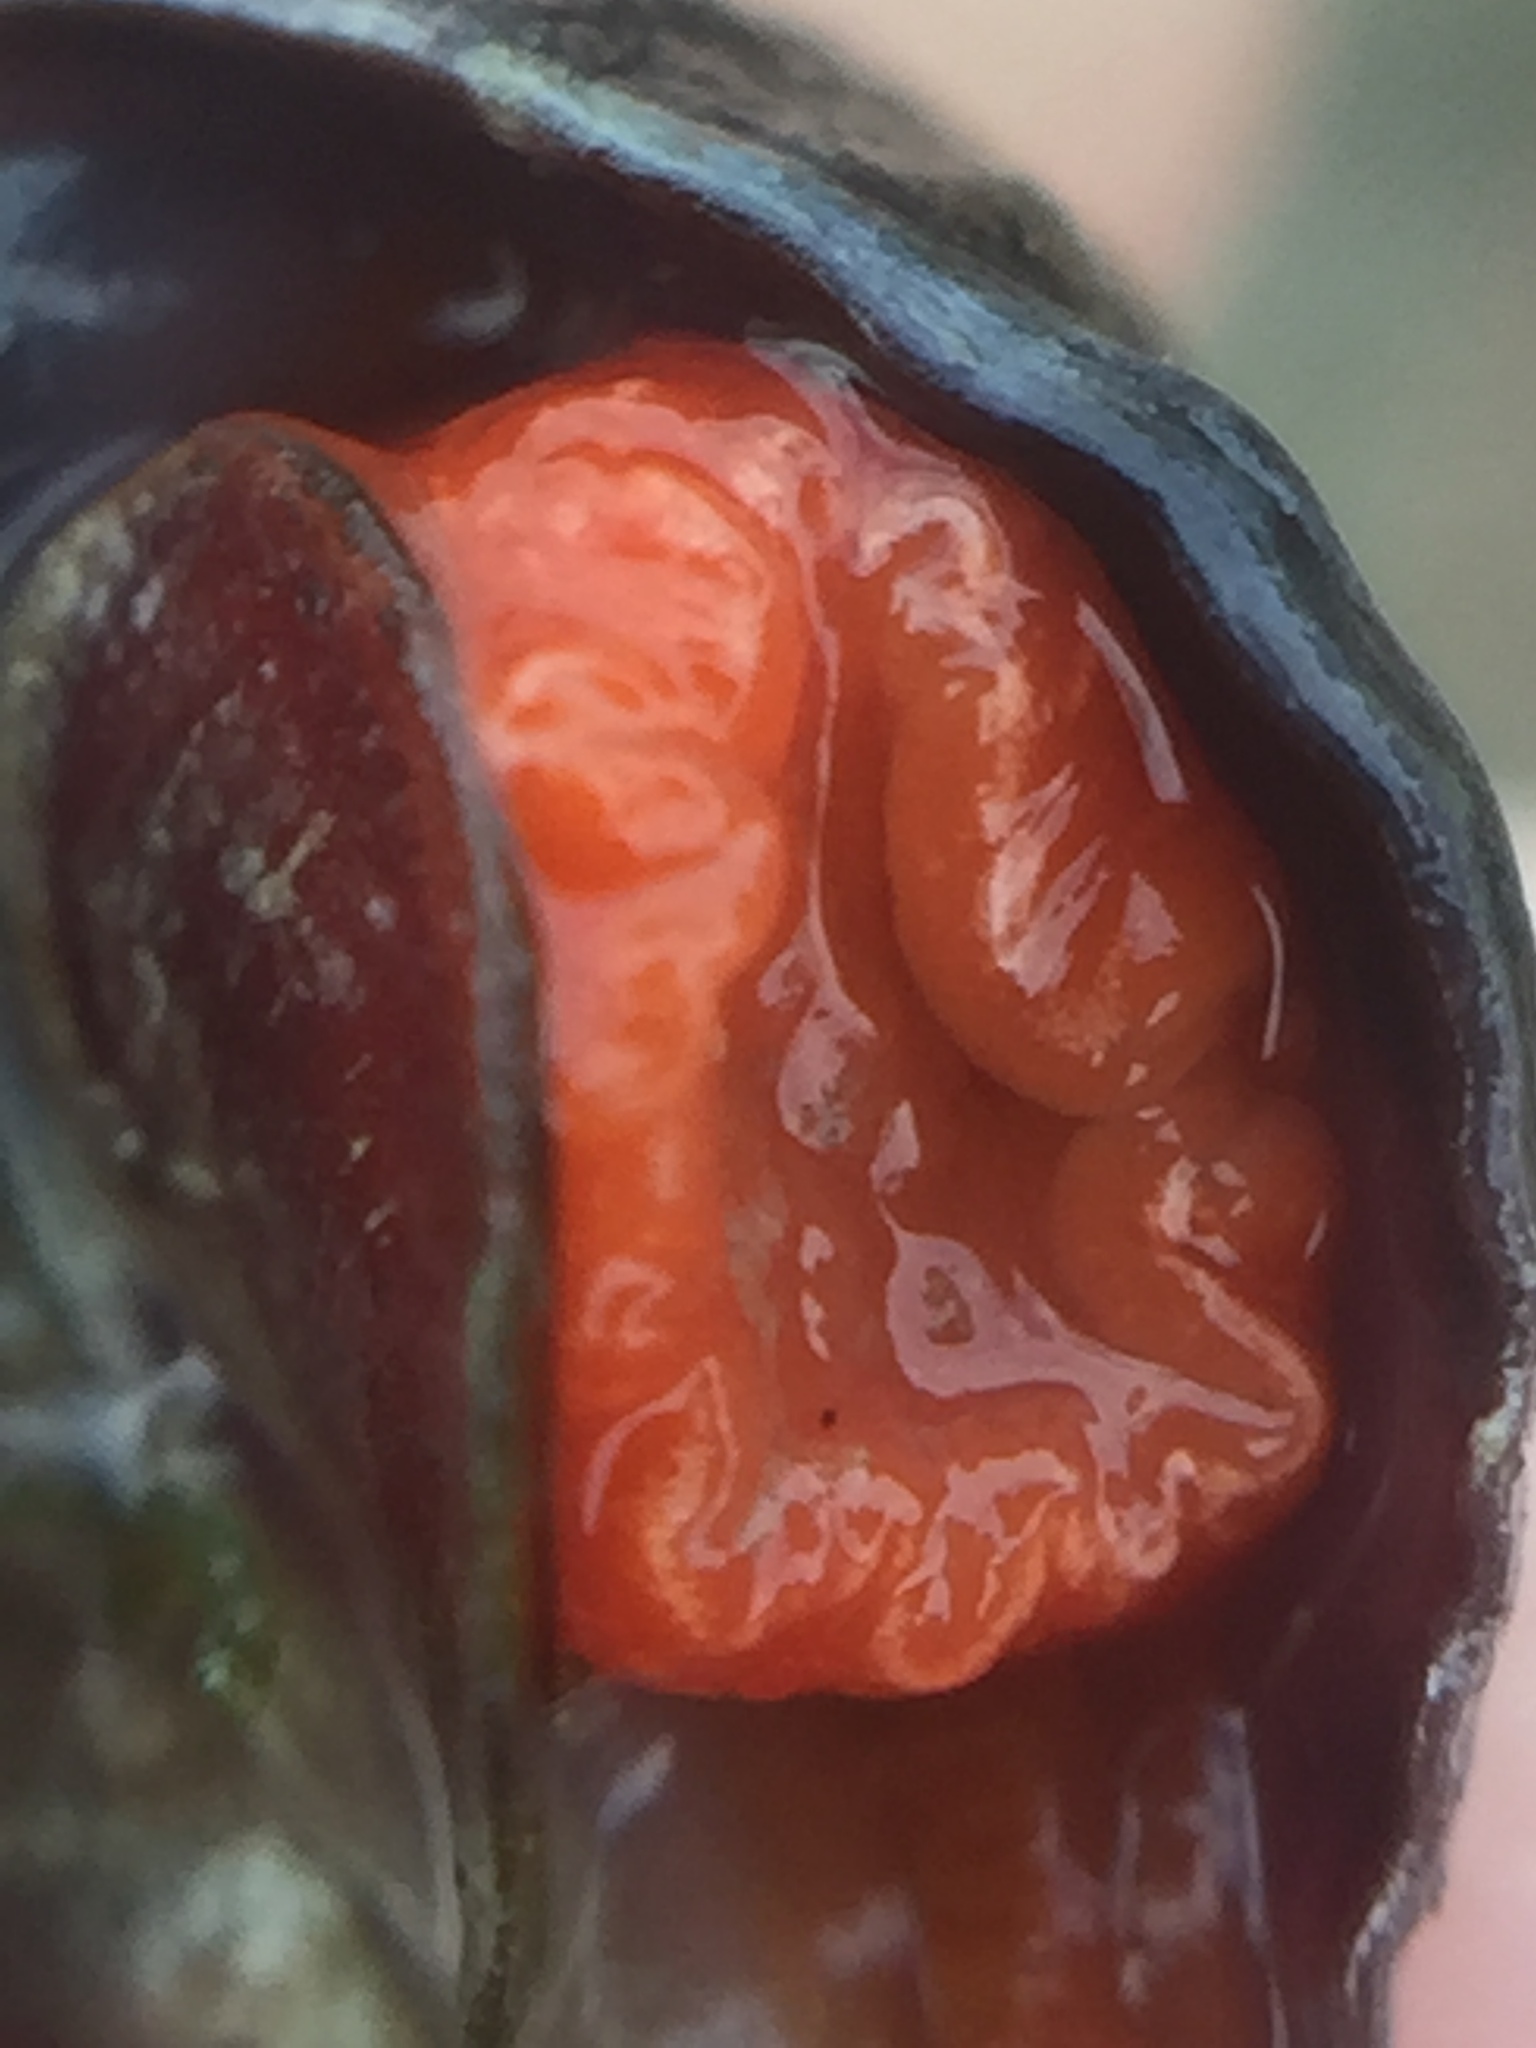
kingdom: Animalia
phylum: Mollusca
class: Gastropoda
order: Neogastropoda
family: Fasciolariidae
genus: Taron
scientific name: Taron dubius
